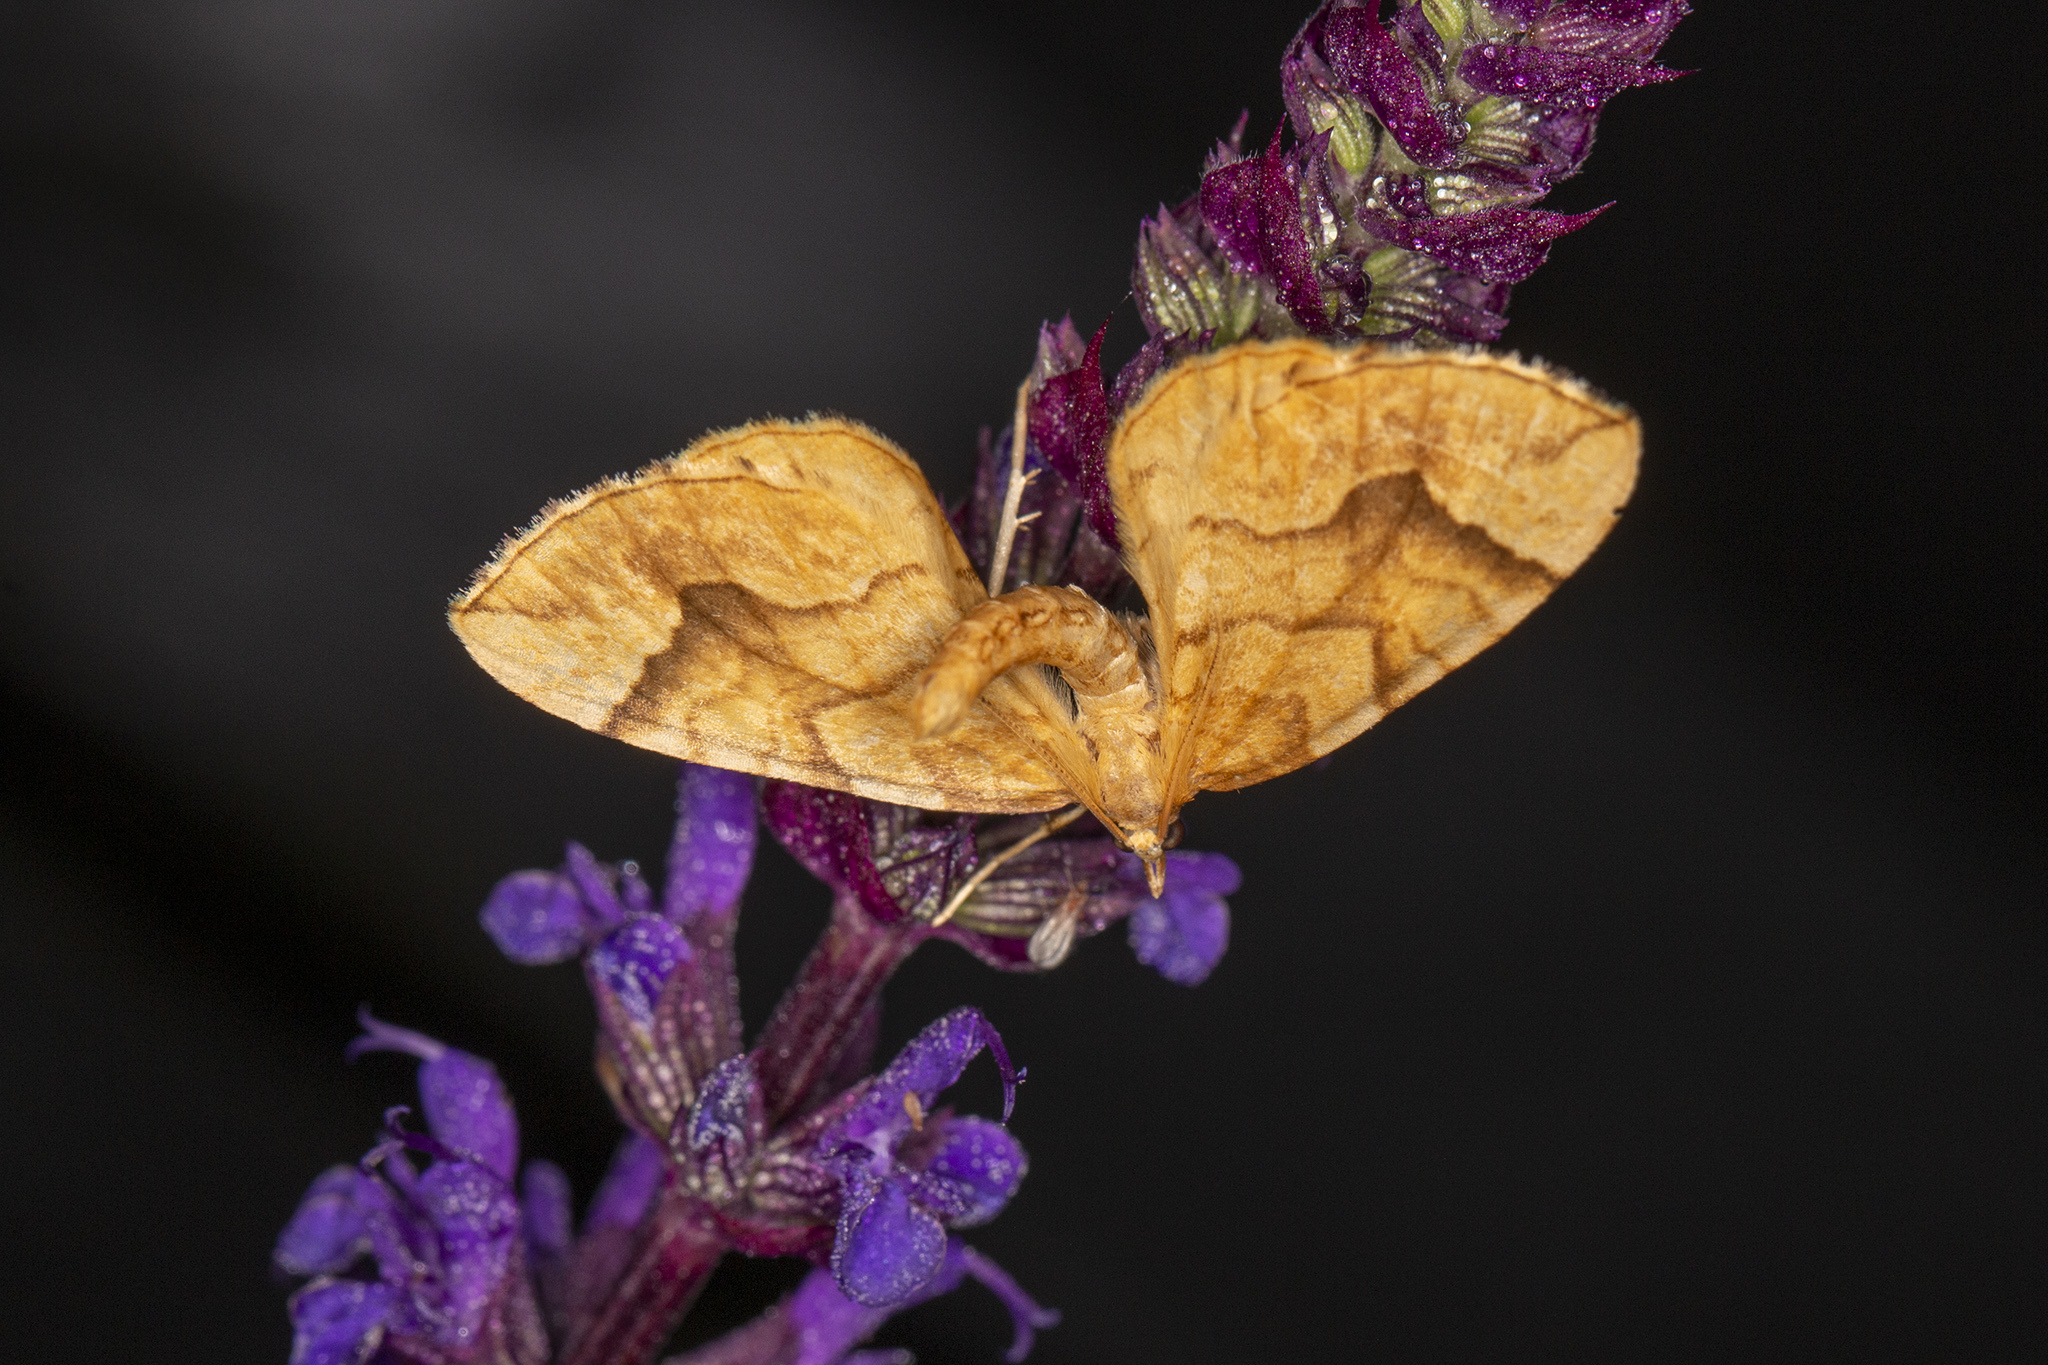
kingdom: Animalia
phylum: Arthropoda
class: Insecta
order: Lepidoptera
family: Geometridae
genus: Eulithis
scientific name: Eulithis mellinata
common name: Spinach
